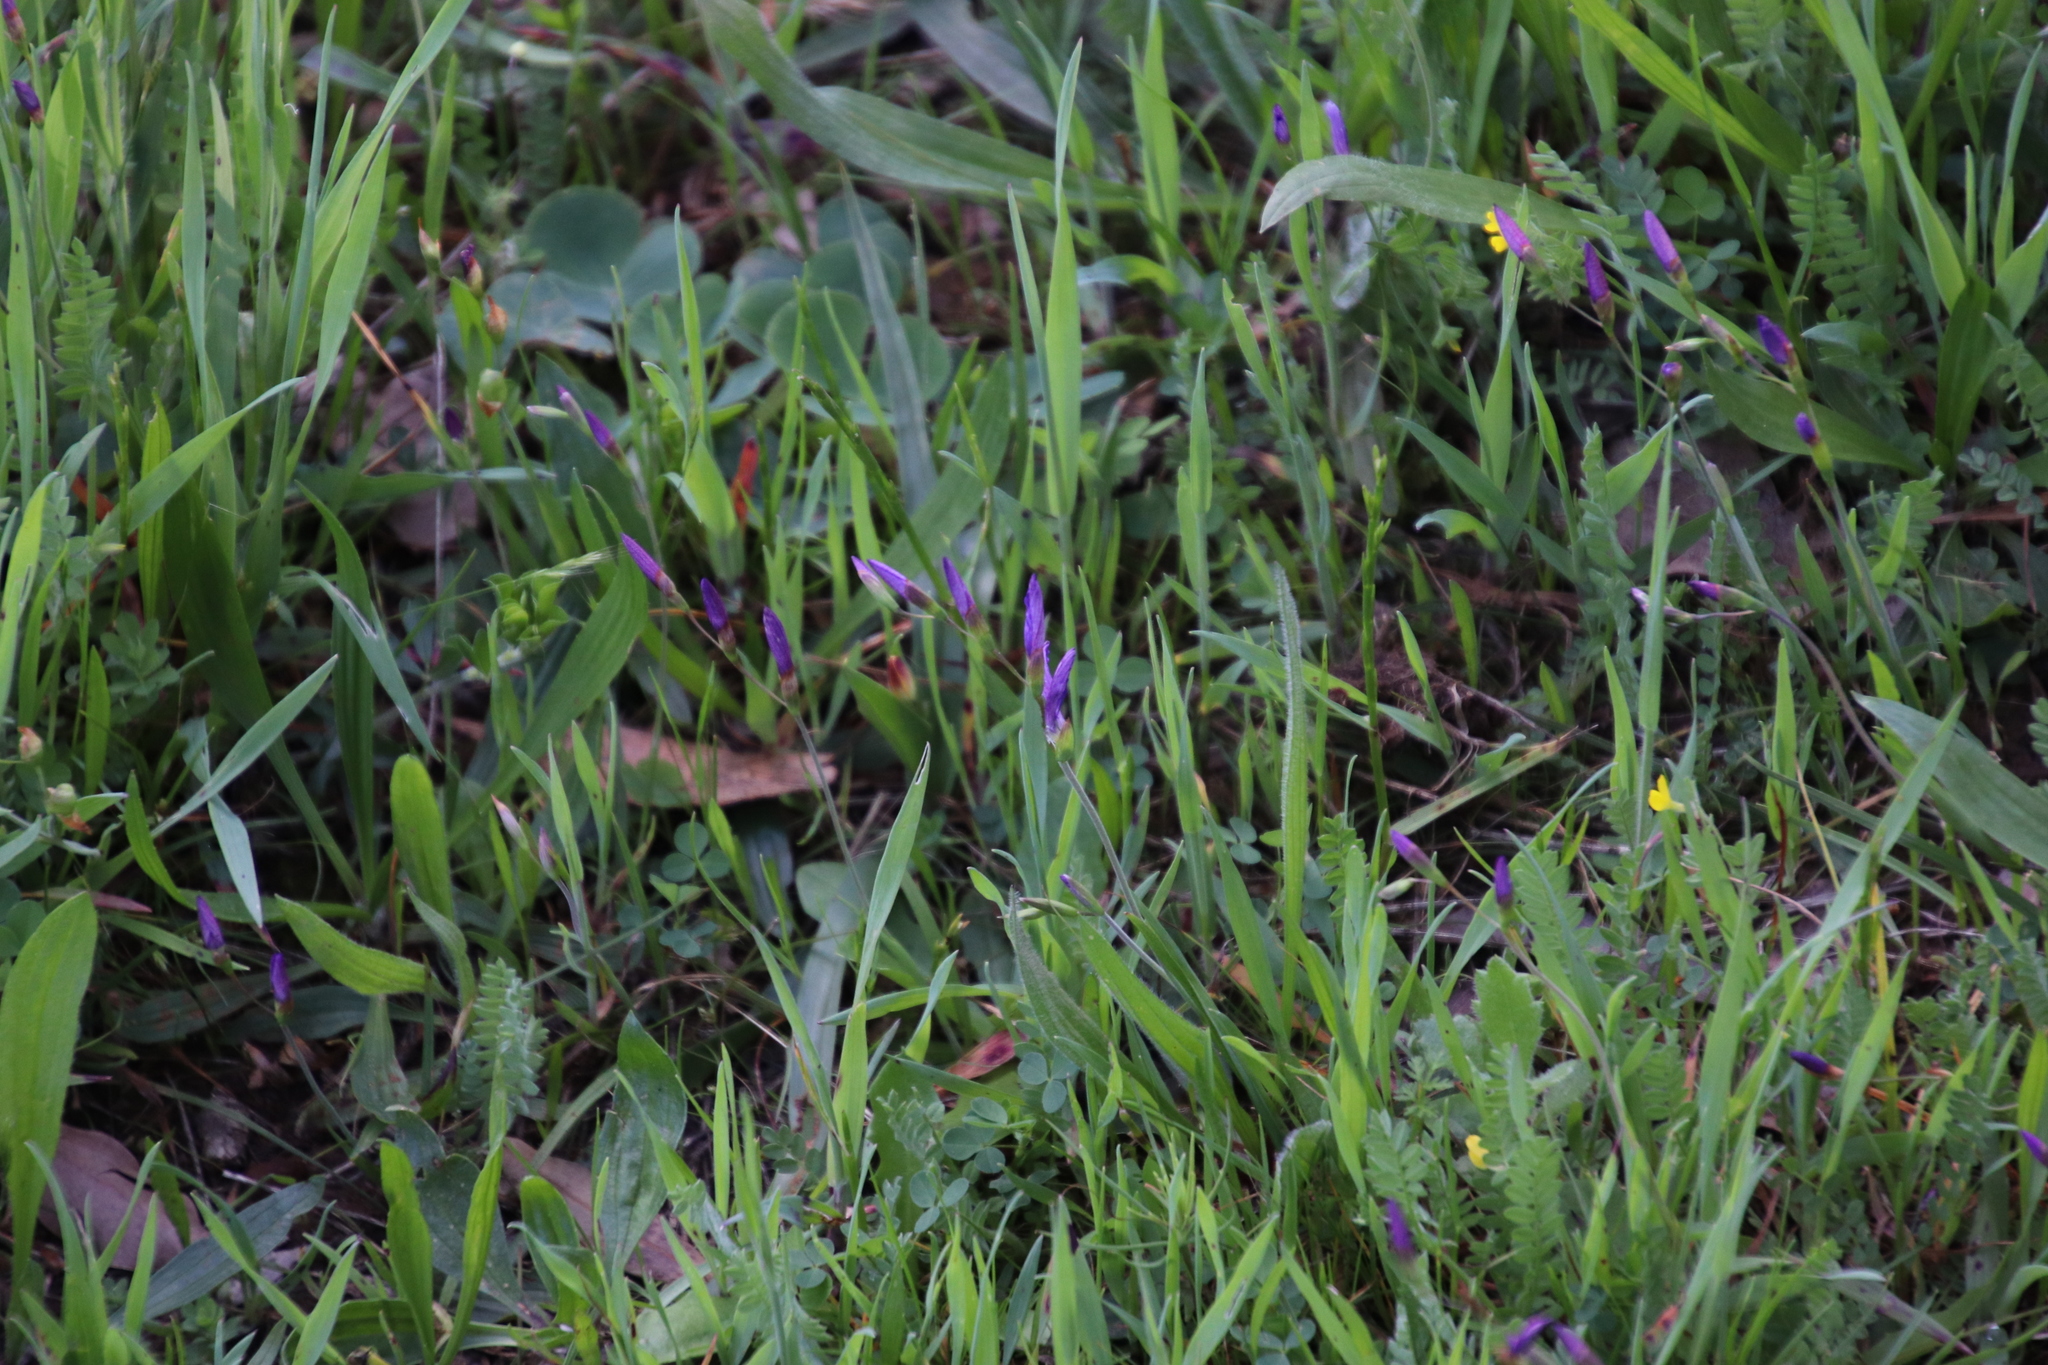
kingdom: Plantae
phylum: Tracheophyta
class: Liliopsida
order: Asparagales
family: Iridaceae
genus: Geissorhiza
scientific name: Geissorhiza aspera
